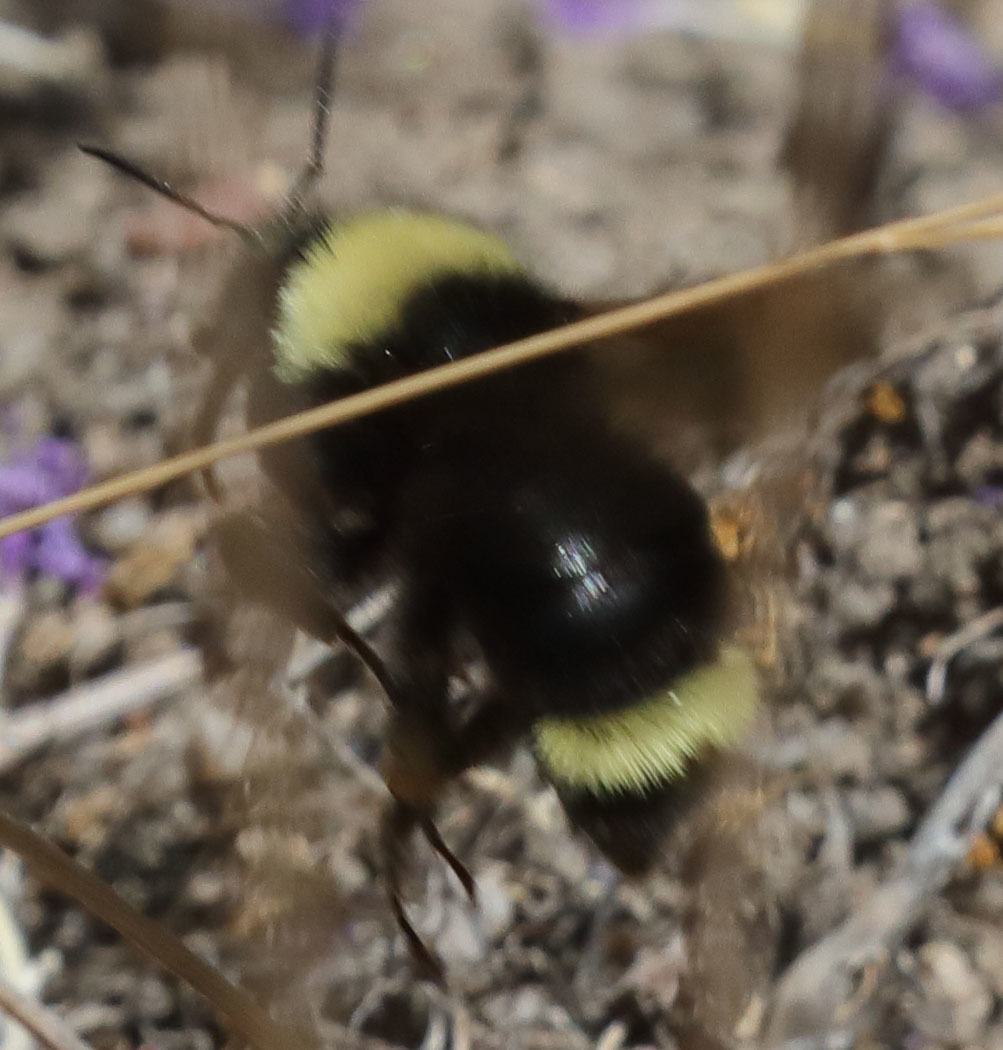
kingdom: Animalia
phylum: Arthropoda
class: Insecta
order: Hymenoptera
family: Apidae
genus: Bombus
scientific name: Bombus californicus
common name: California bumble bee
